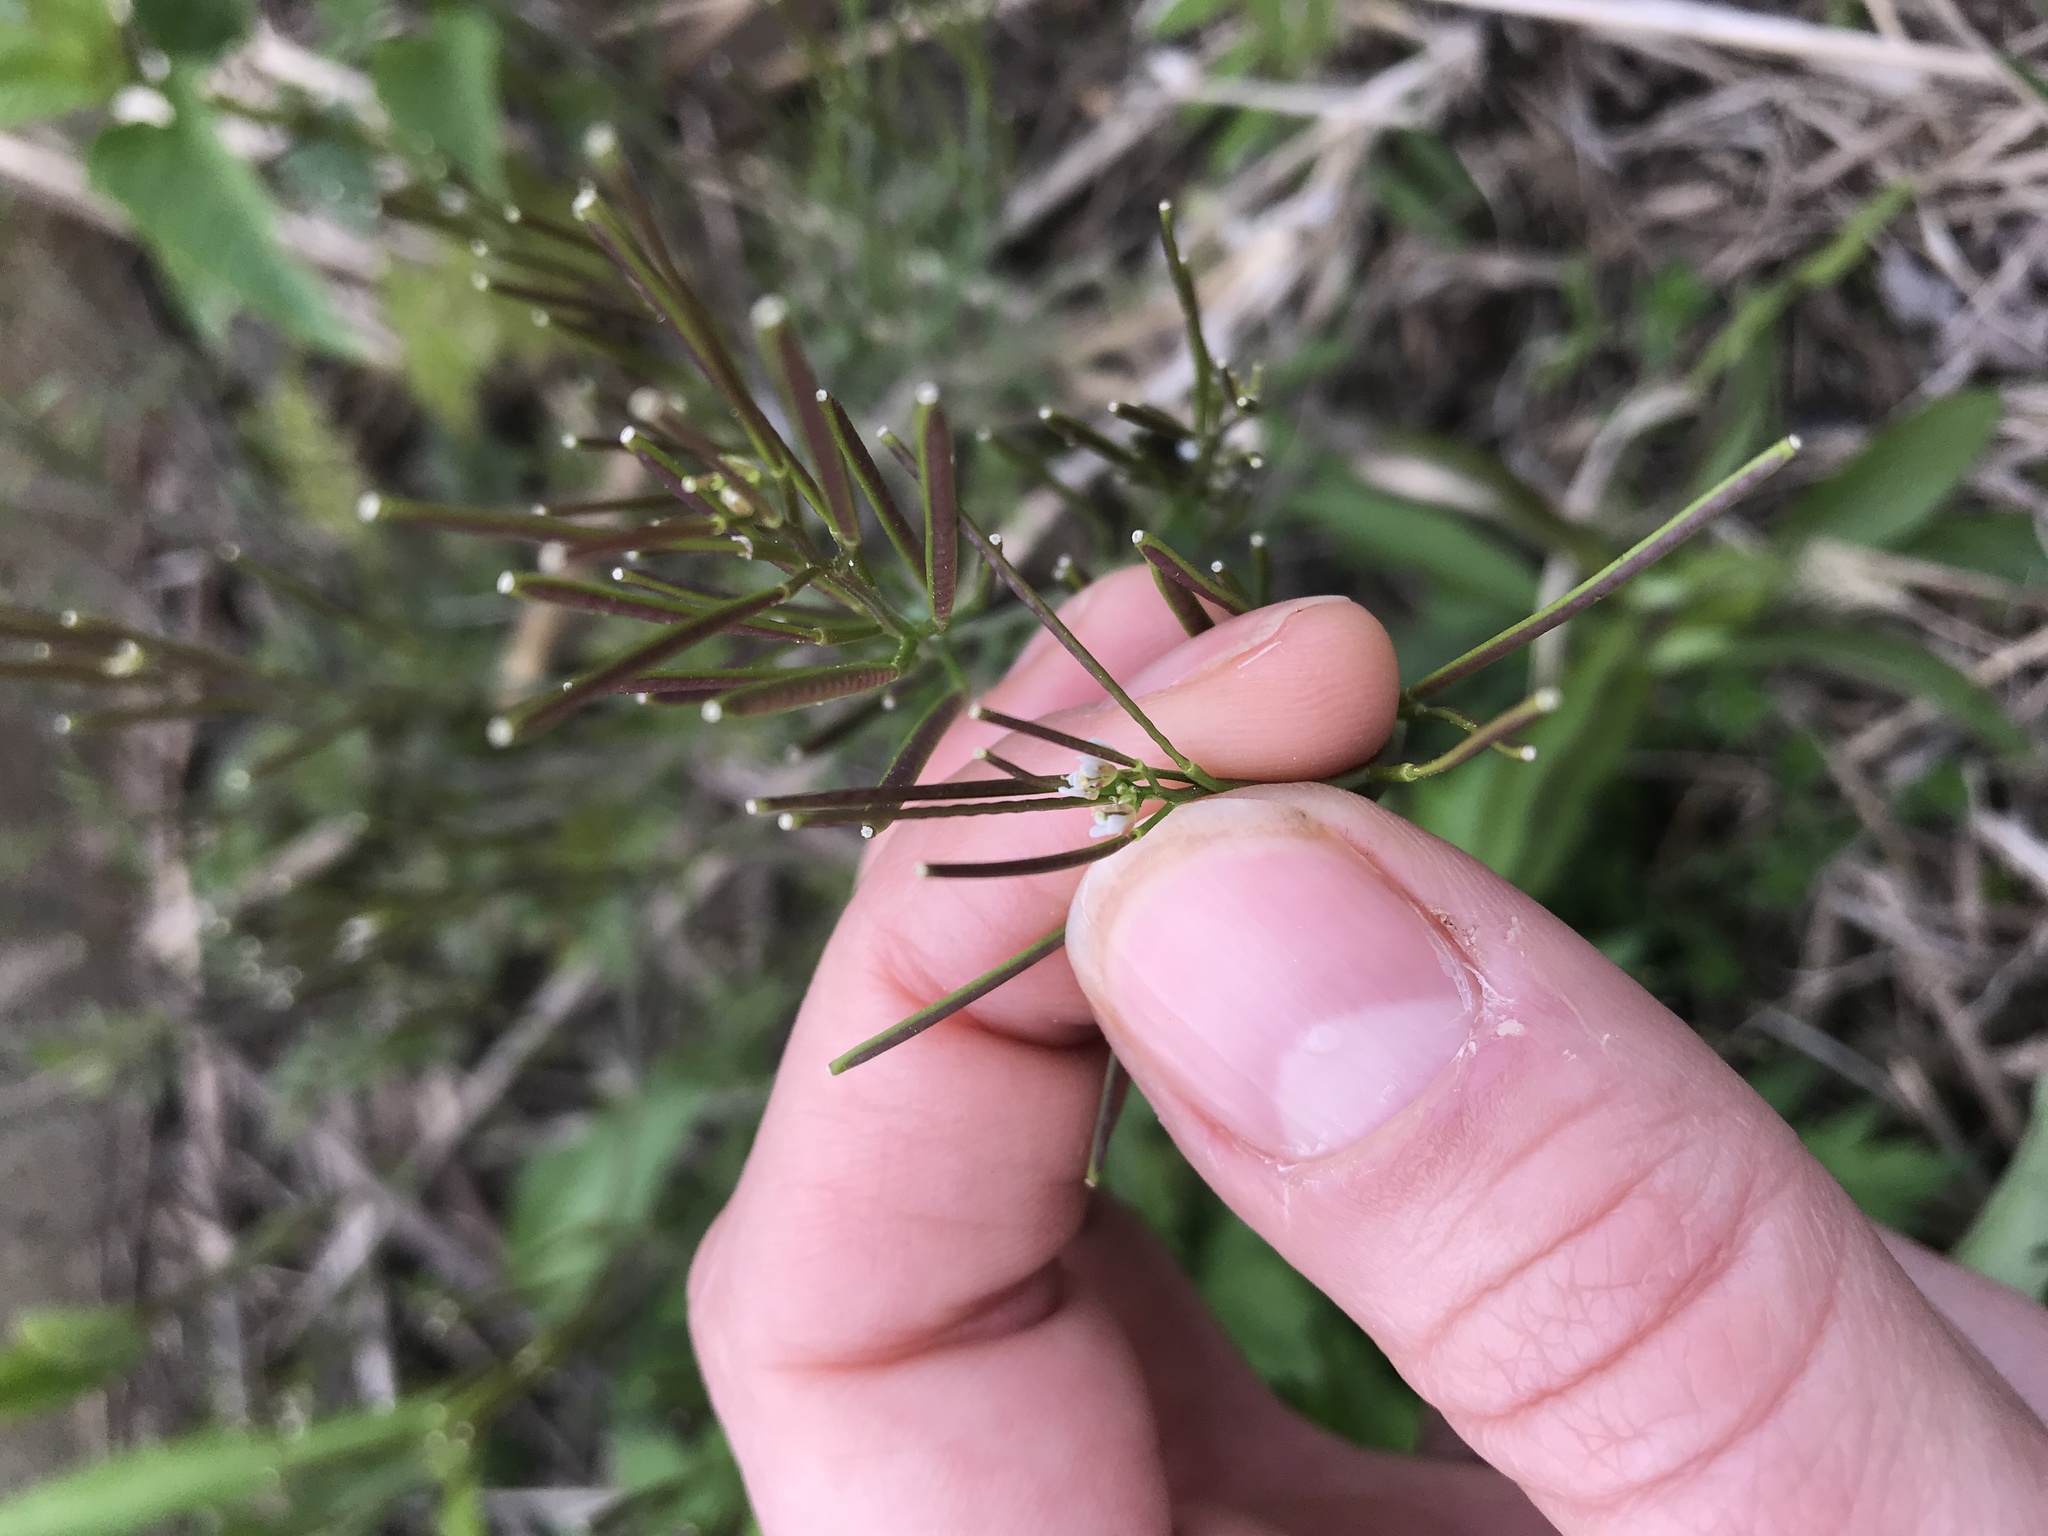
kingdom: Plantae
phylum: Tracheophyta
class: Magnoliopsida
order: Brassicales
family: Brassicaceae
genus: Cardamine
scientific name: Cardamine hirsuta
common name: Hairy bittercress
